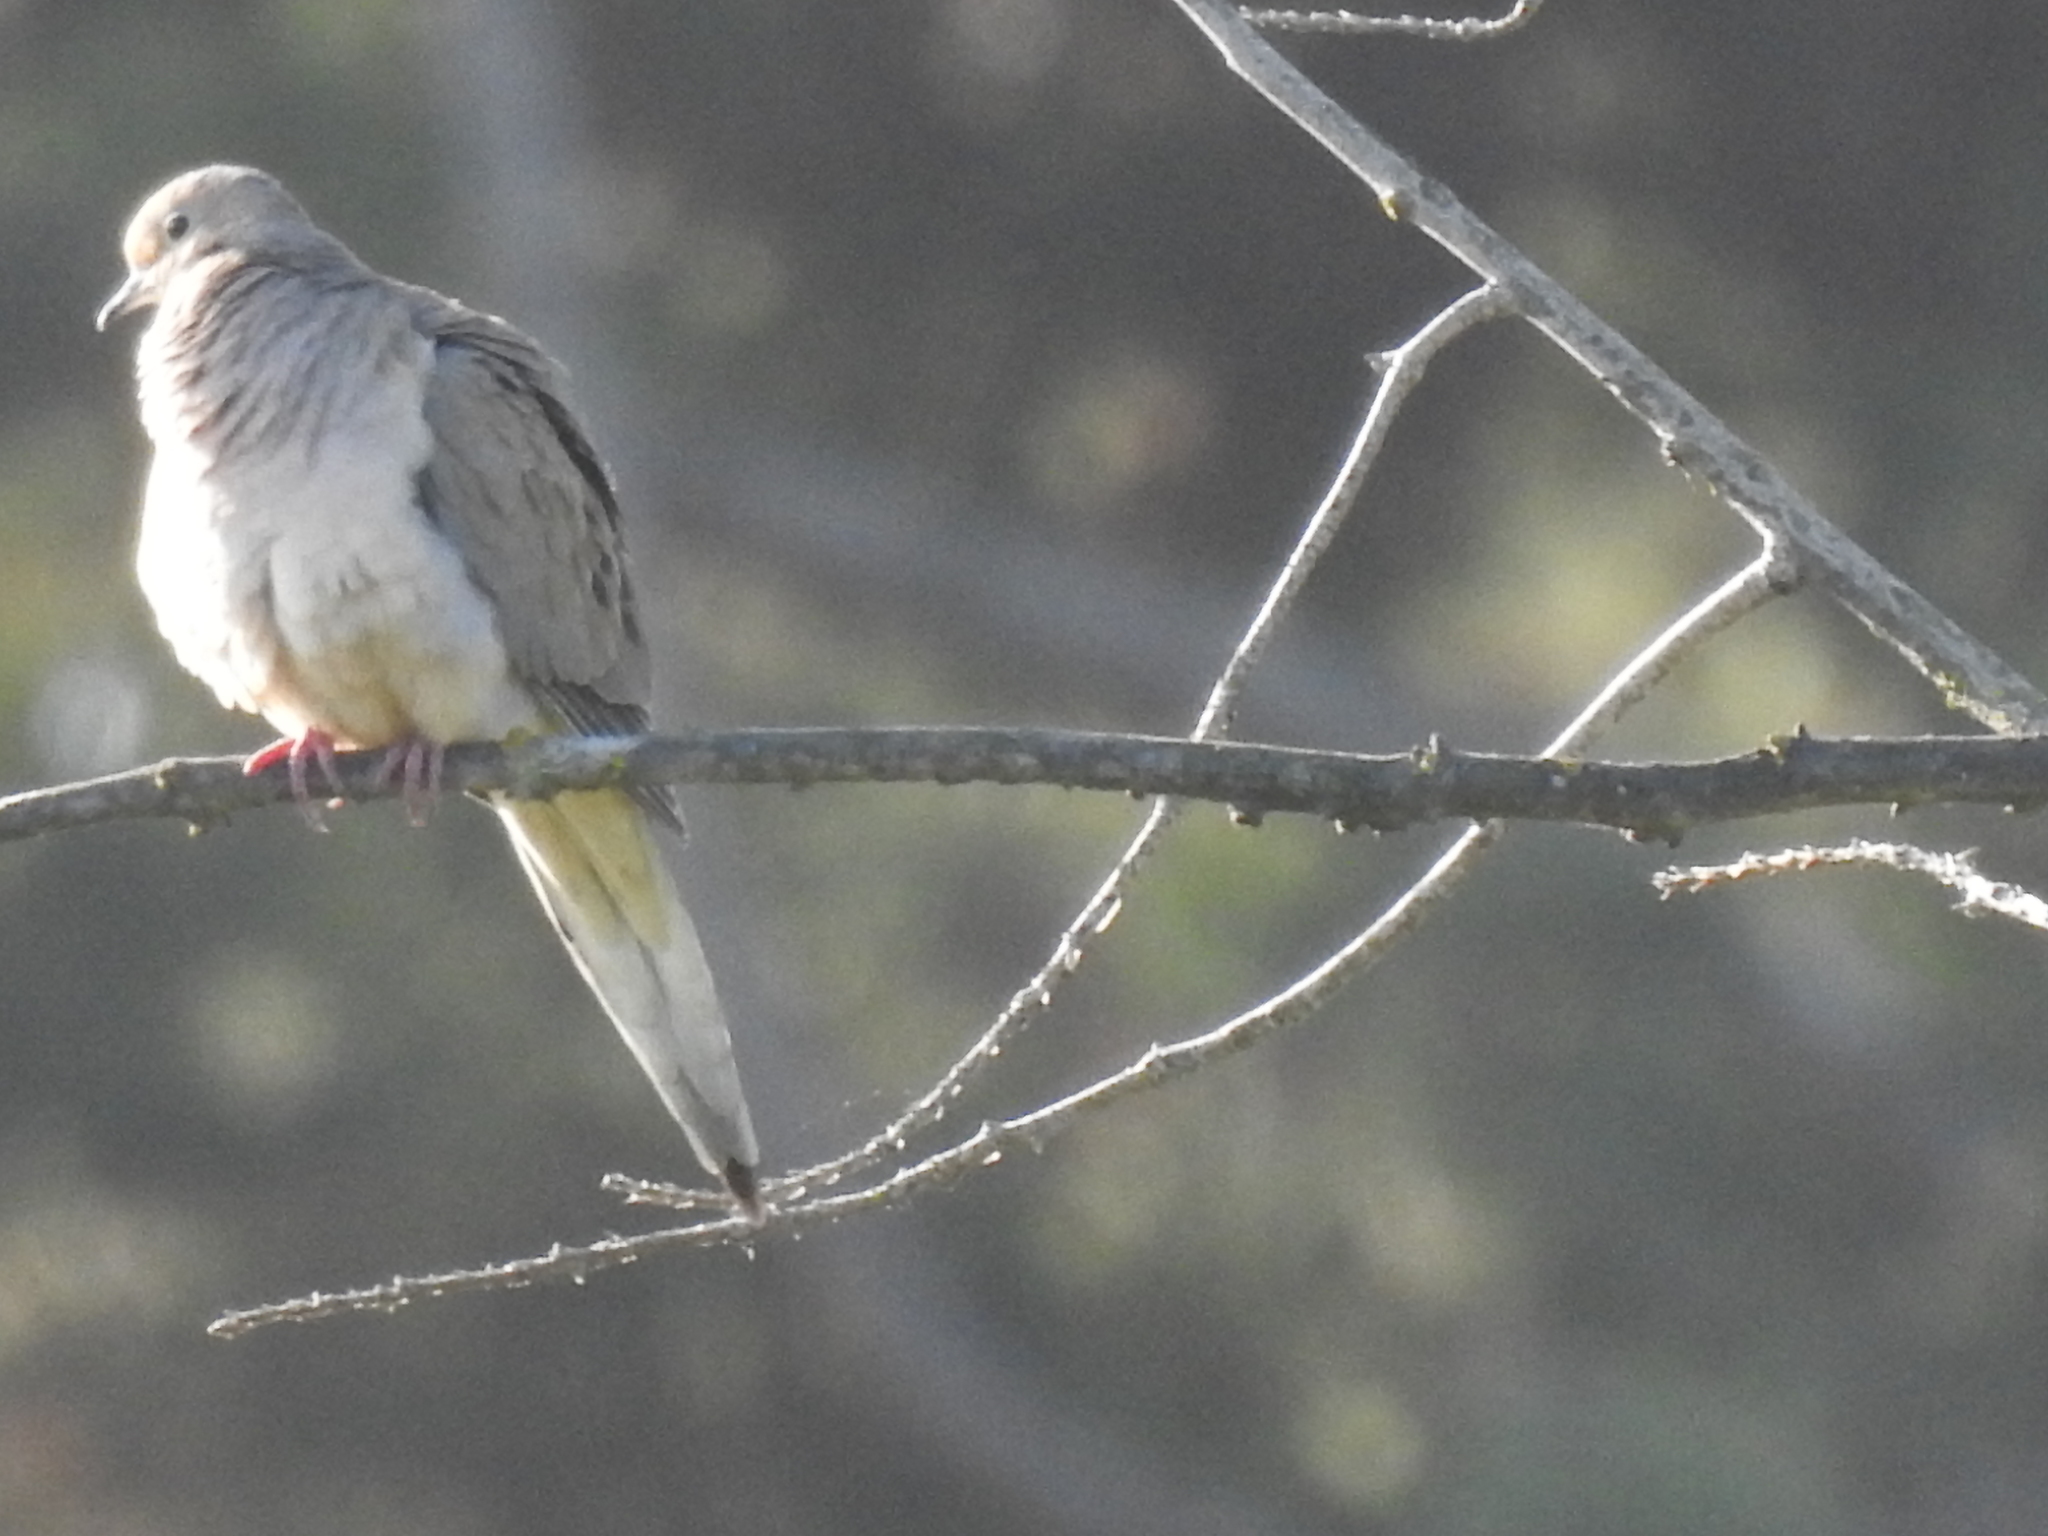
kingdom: Animalia
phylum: Chordata
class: Aves
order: Columbiformes
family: Columbidae
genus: Zenaida
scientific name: Zenaida macroura
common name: Mourning dove
